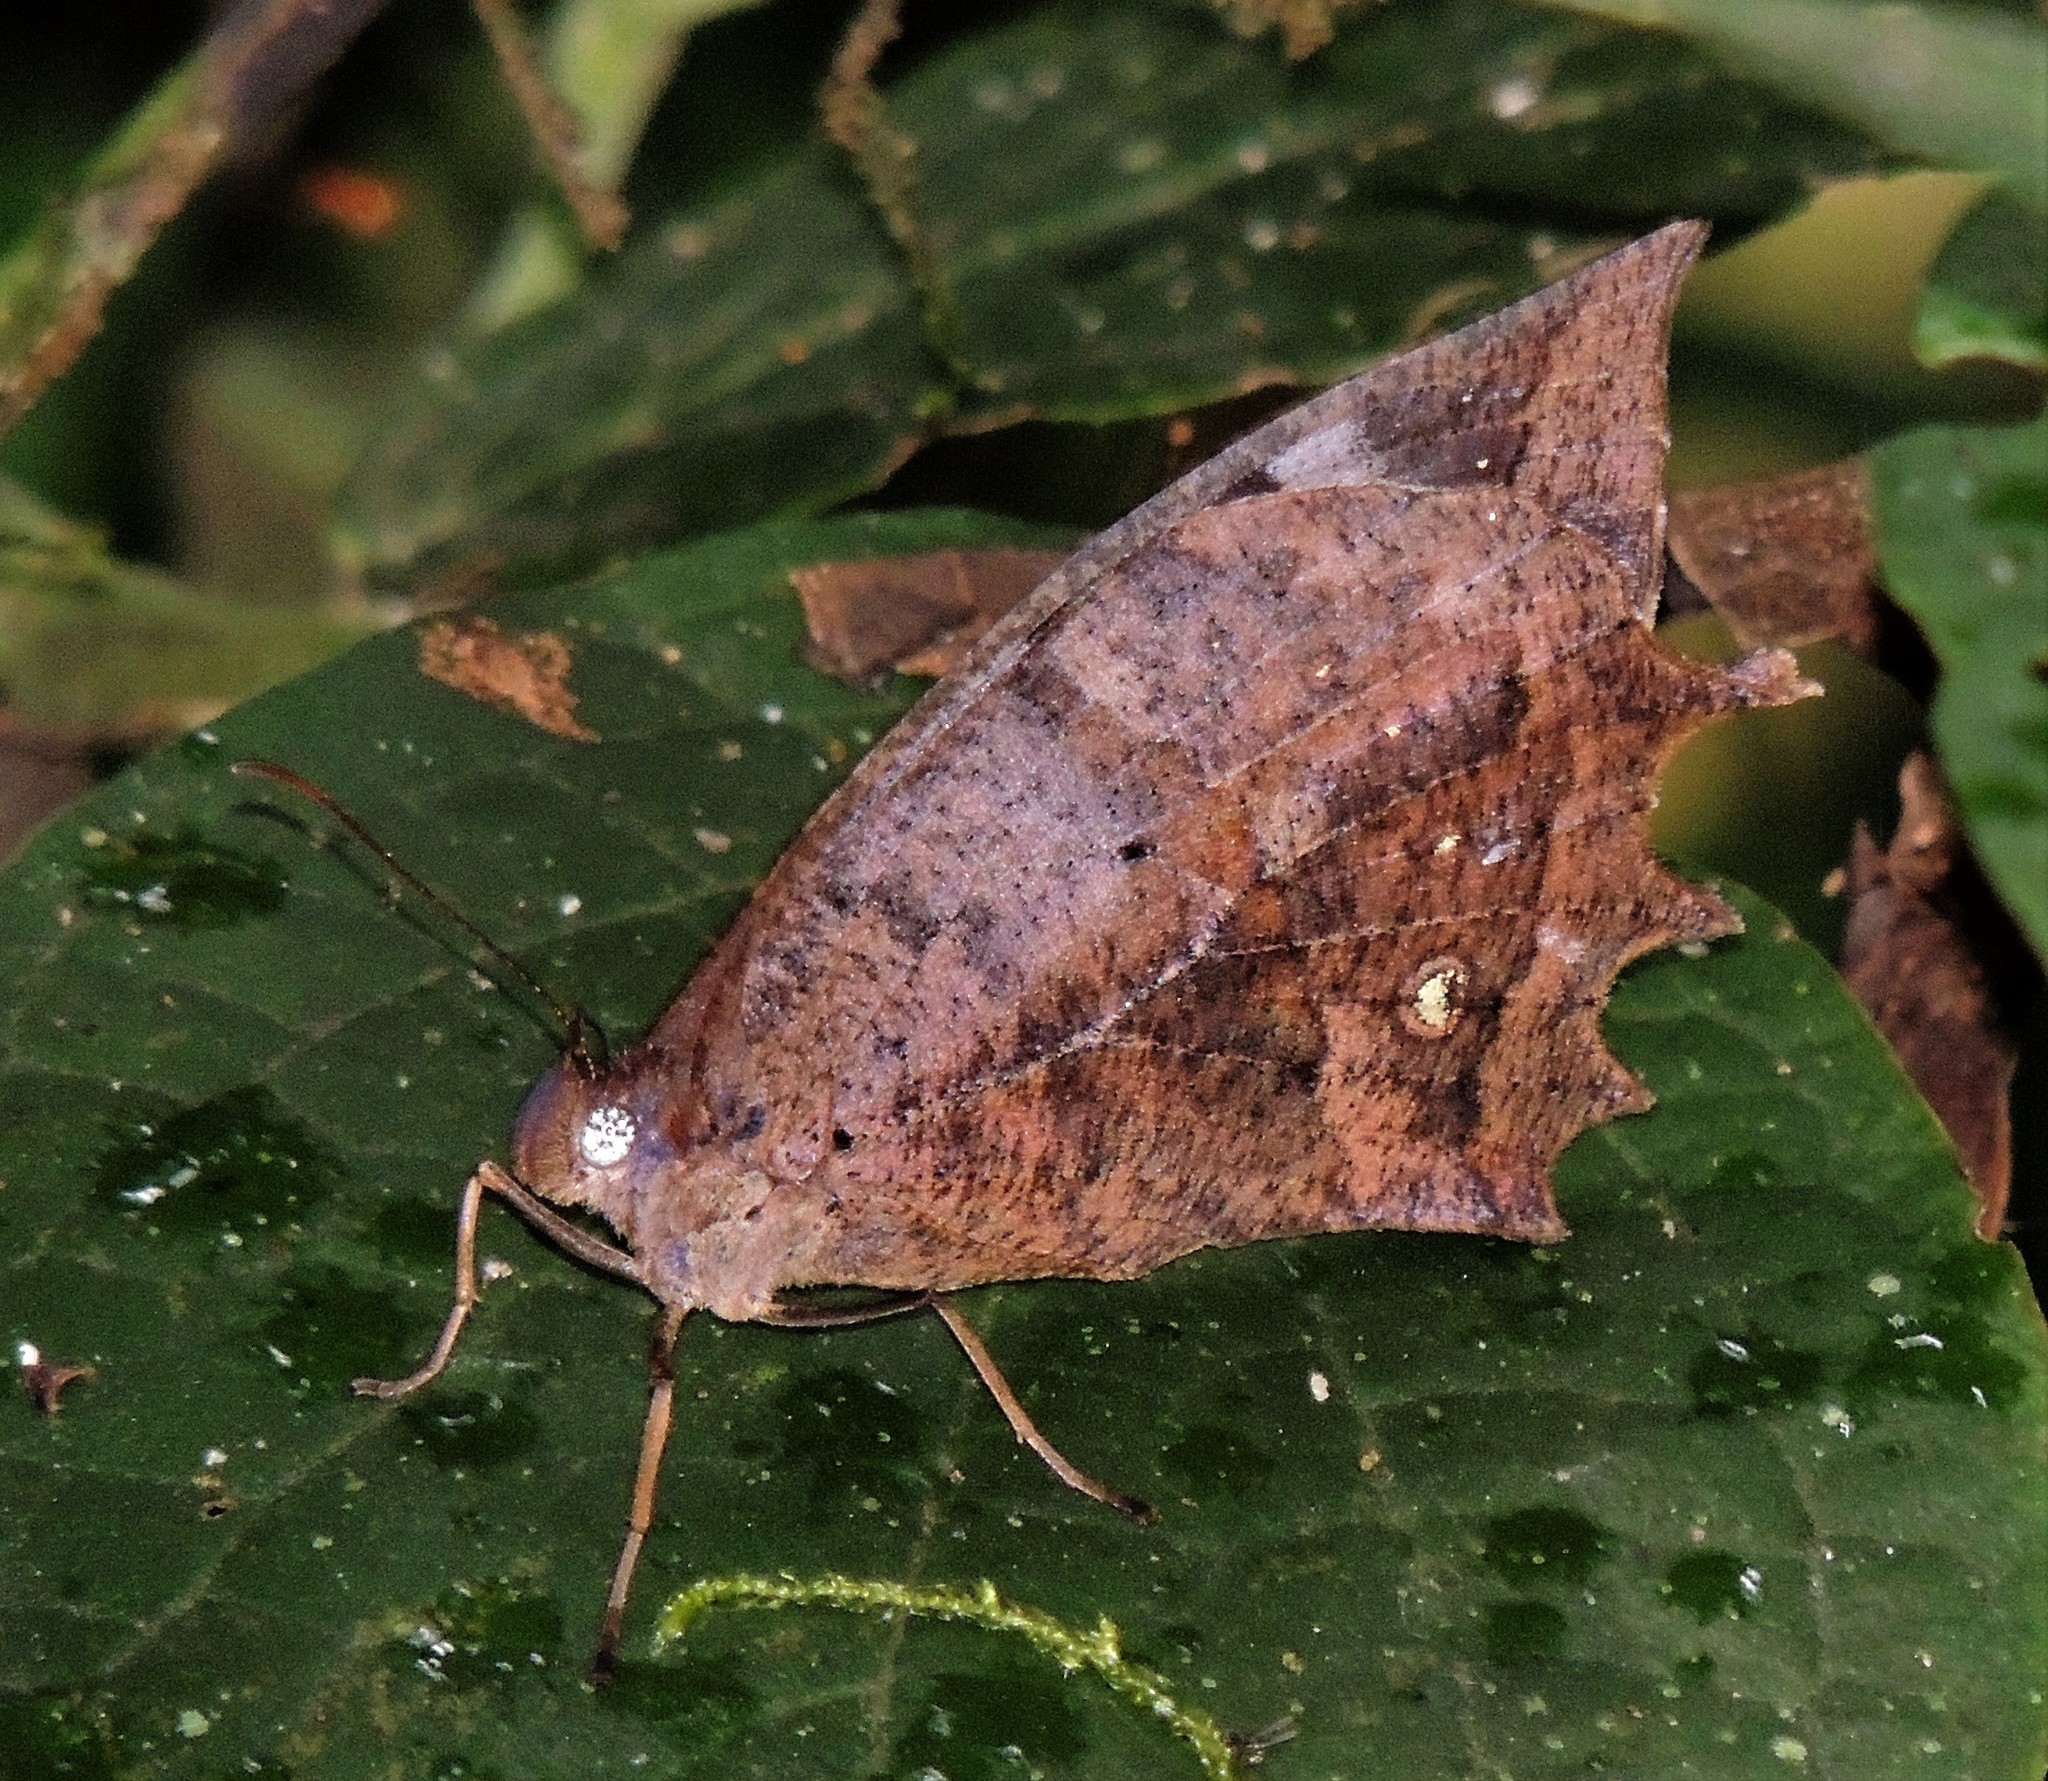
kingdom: Animalia
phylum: Arthropoda
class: Insecta
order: Lepidoptera
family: Nymphalidae
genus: Taguaiba
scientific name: Taguaiba
